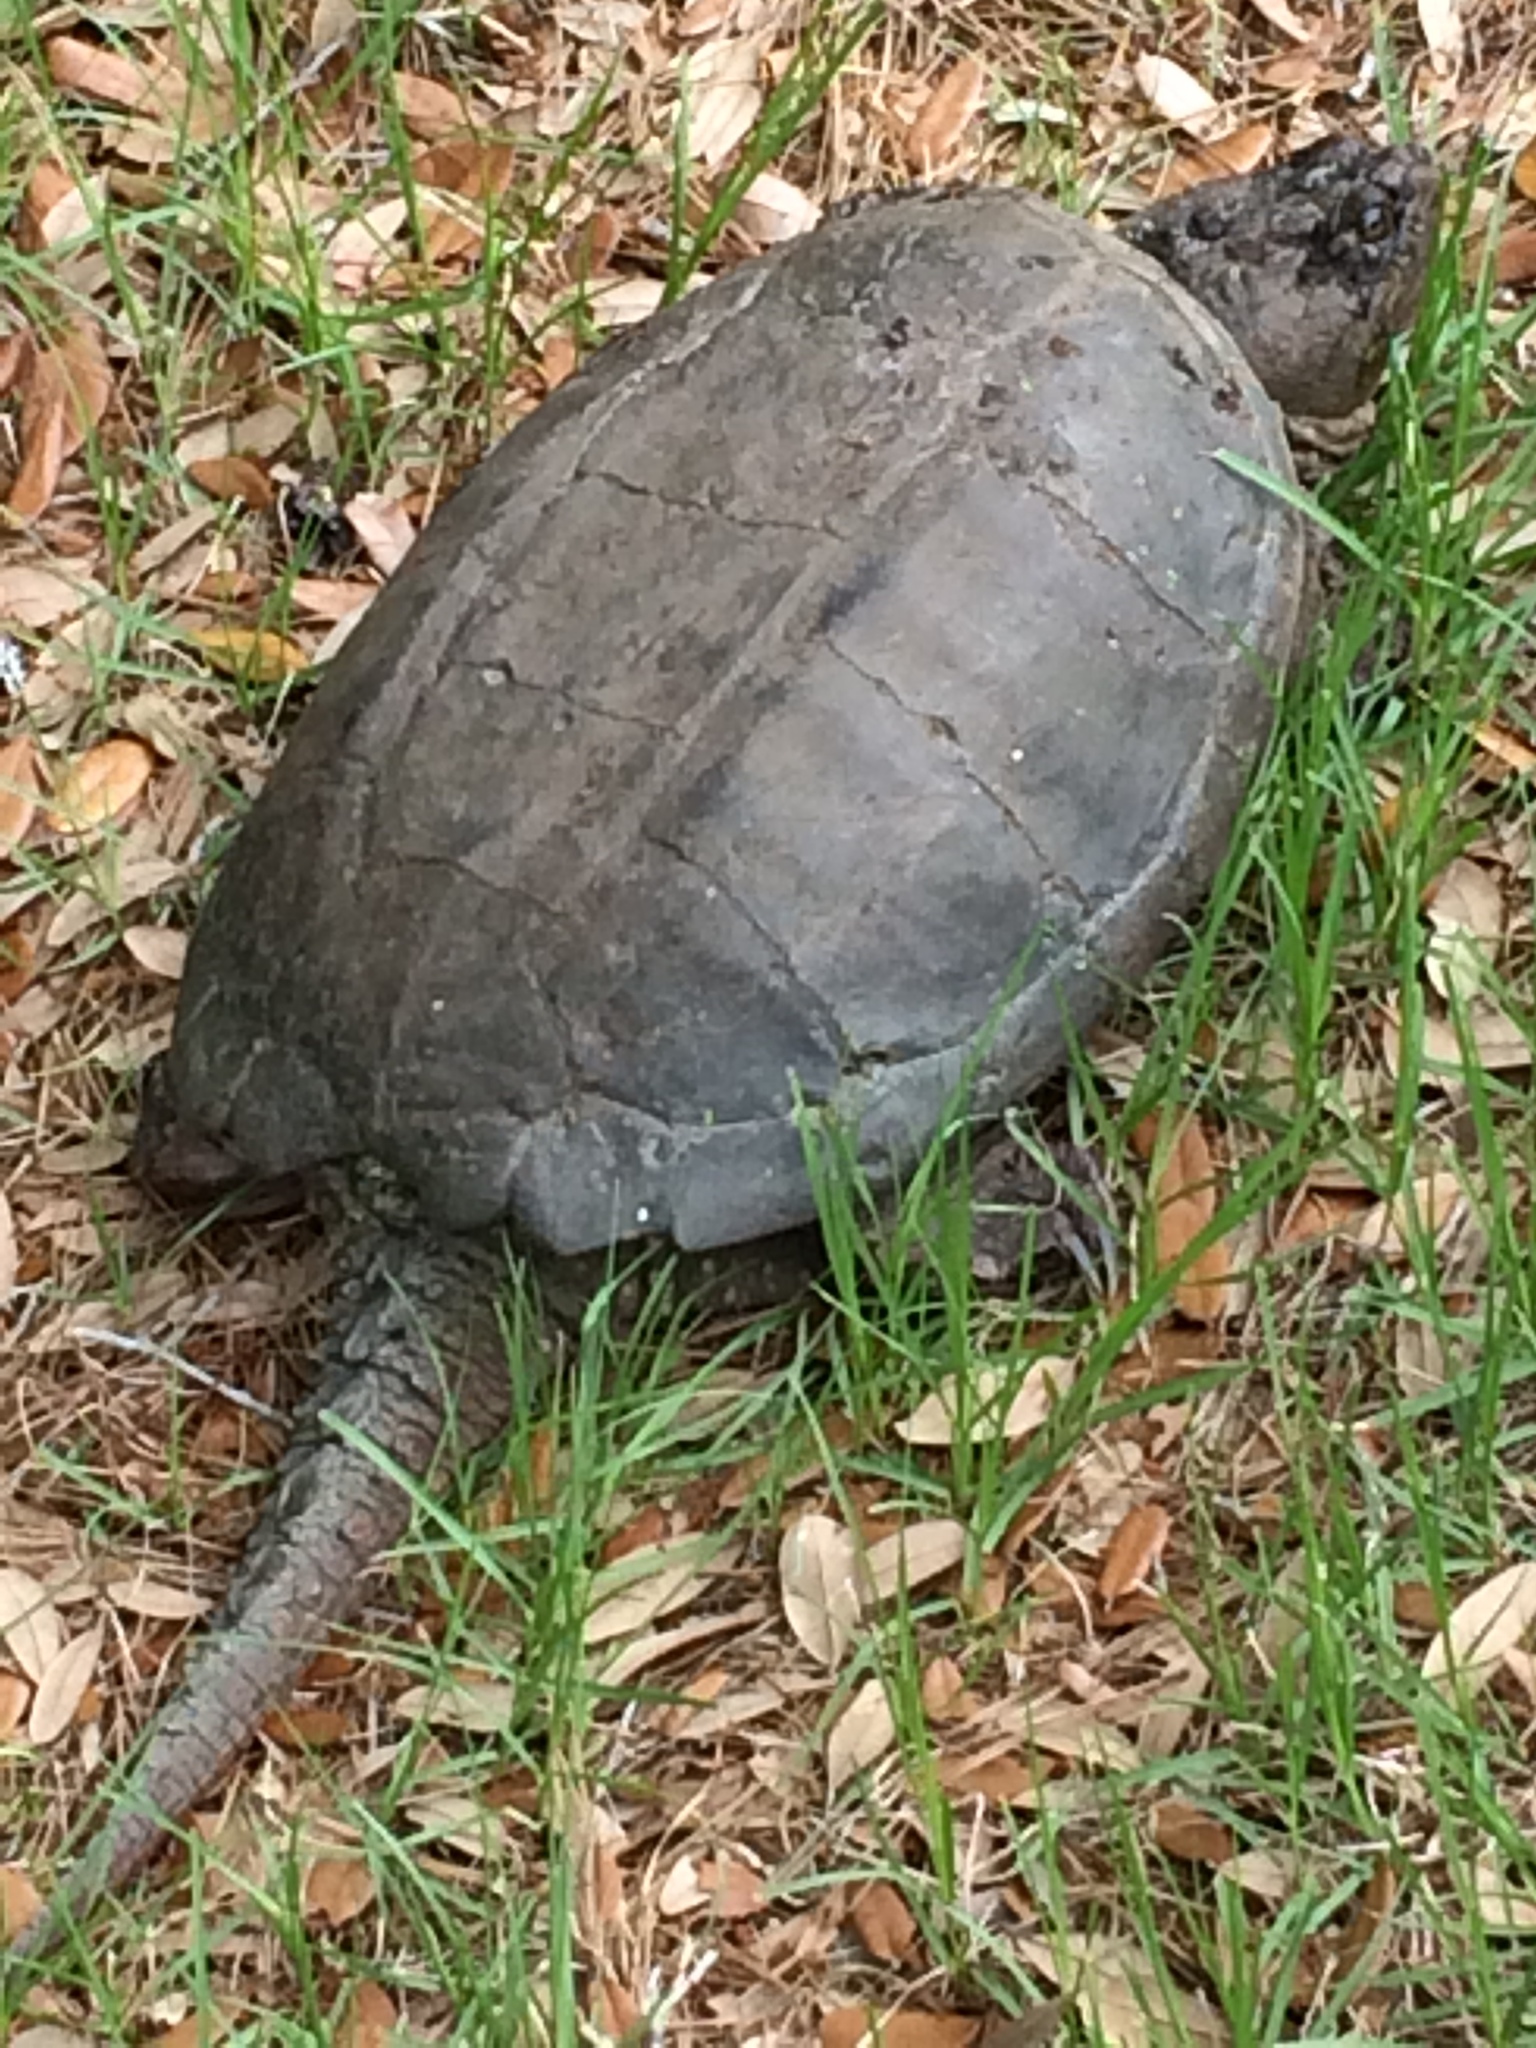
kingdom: Animalia
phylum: Chordata
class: Testudines
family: Chelydridae
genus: Chelydra
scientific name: Chelydra serpentina
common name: Common snapping turtle
